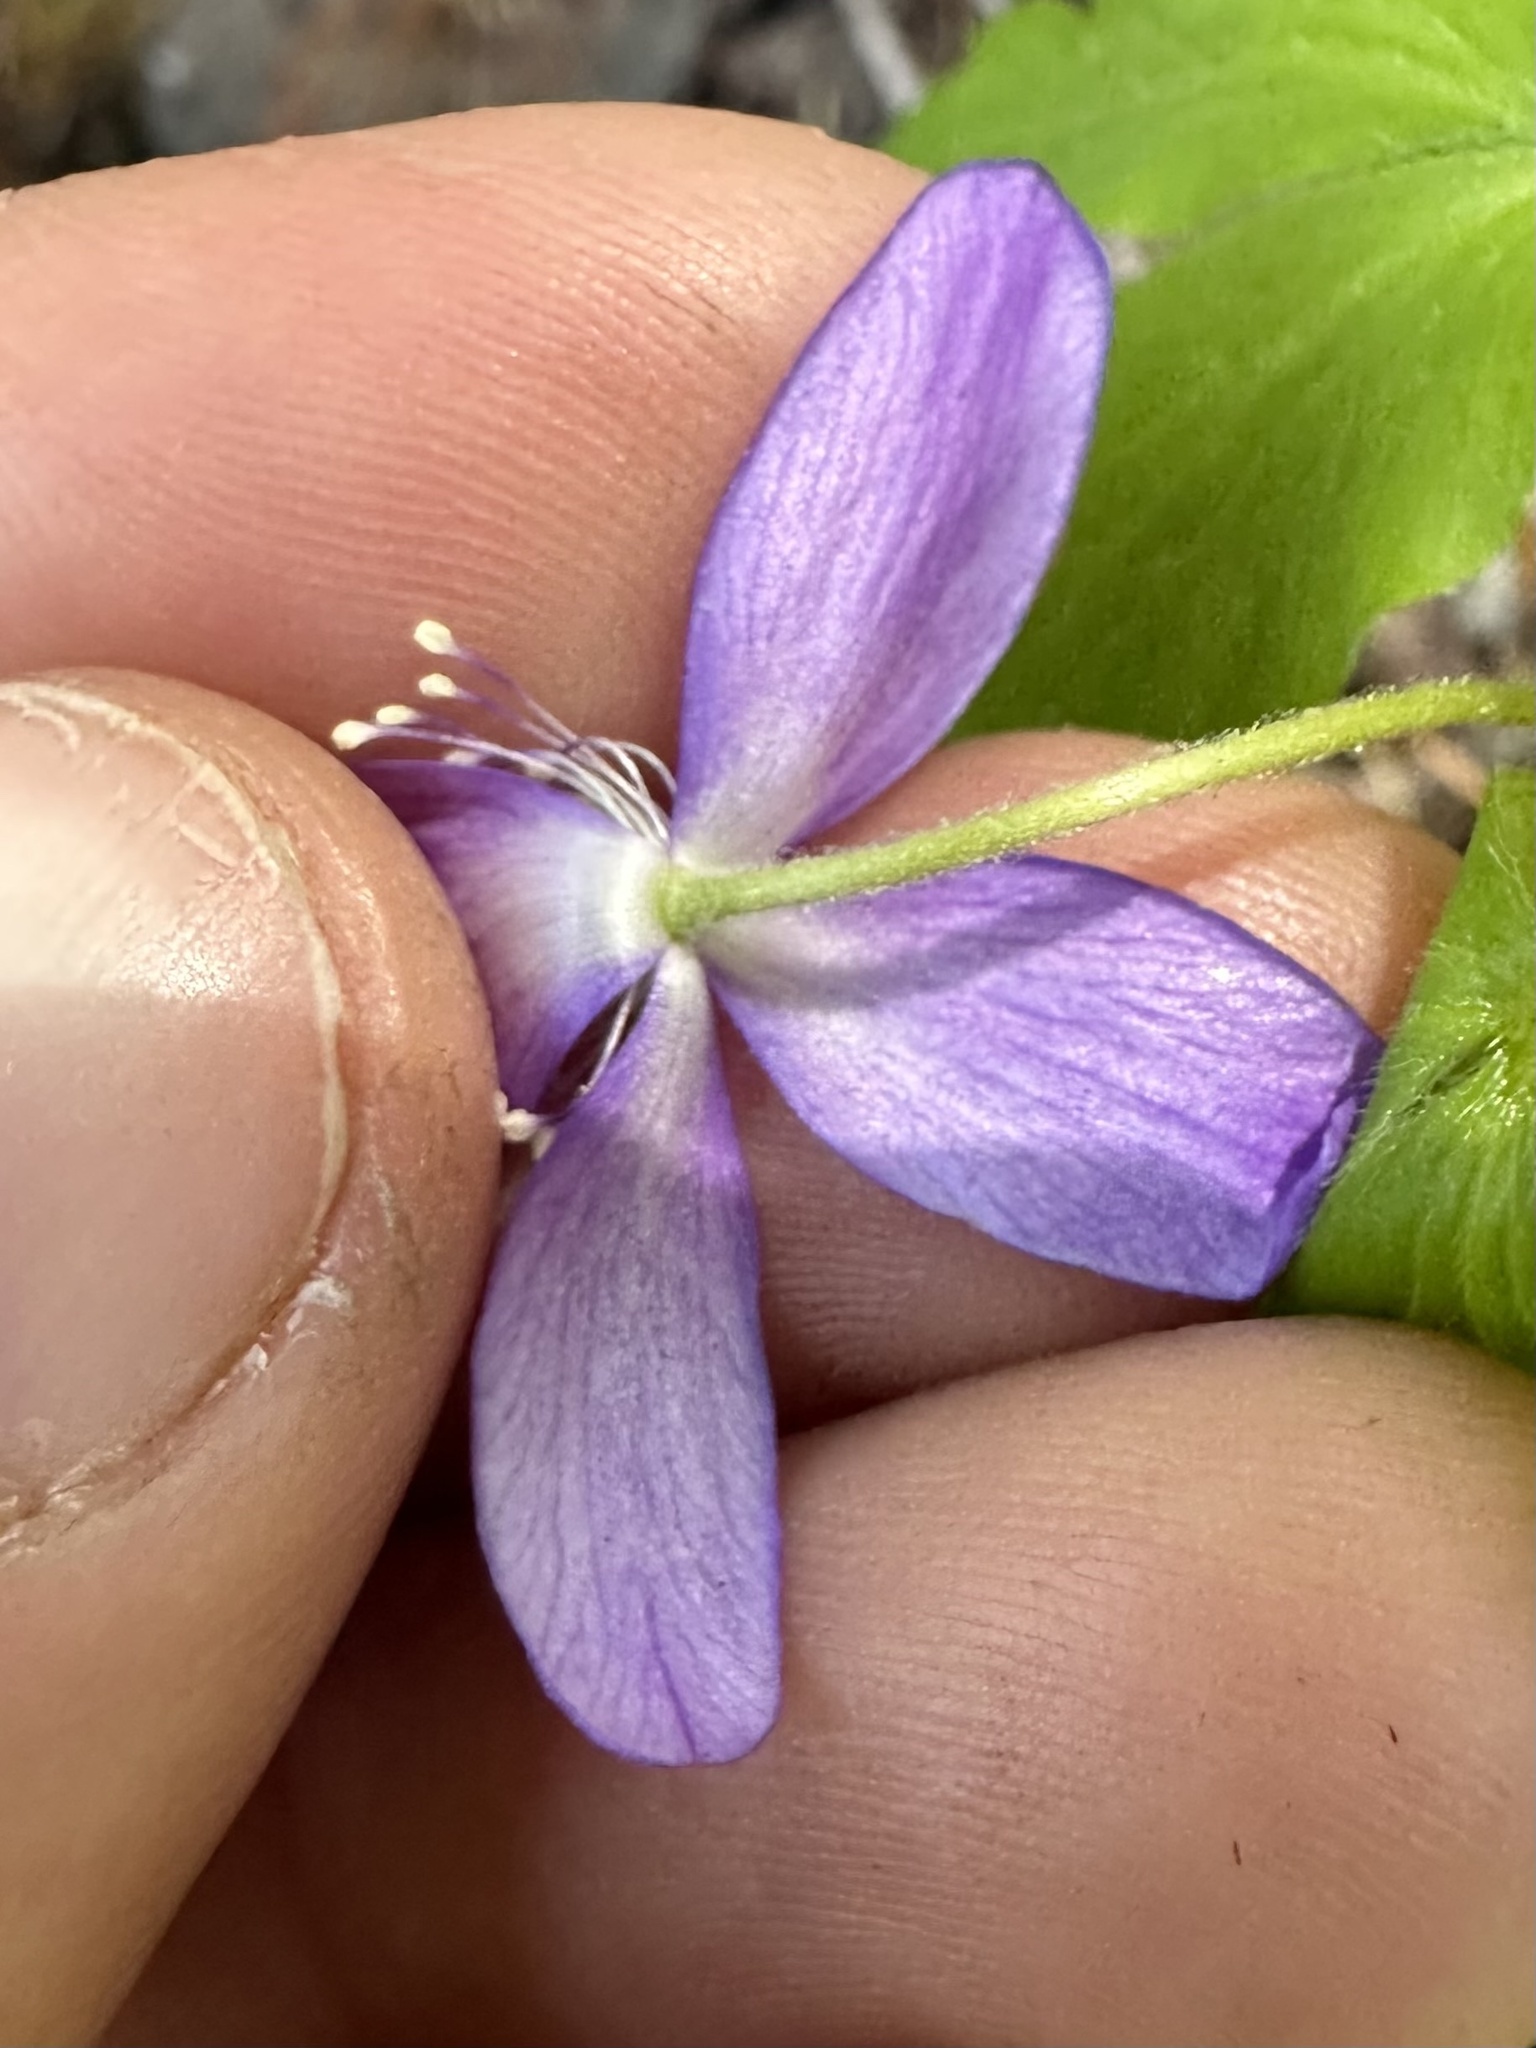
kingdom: Plantae
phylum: Tracheophyta
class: Magnoliopsida
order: Ranunculales
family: Ranunculaceae
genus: Anemone
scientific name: Anemone oregana
